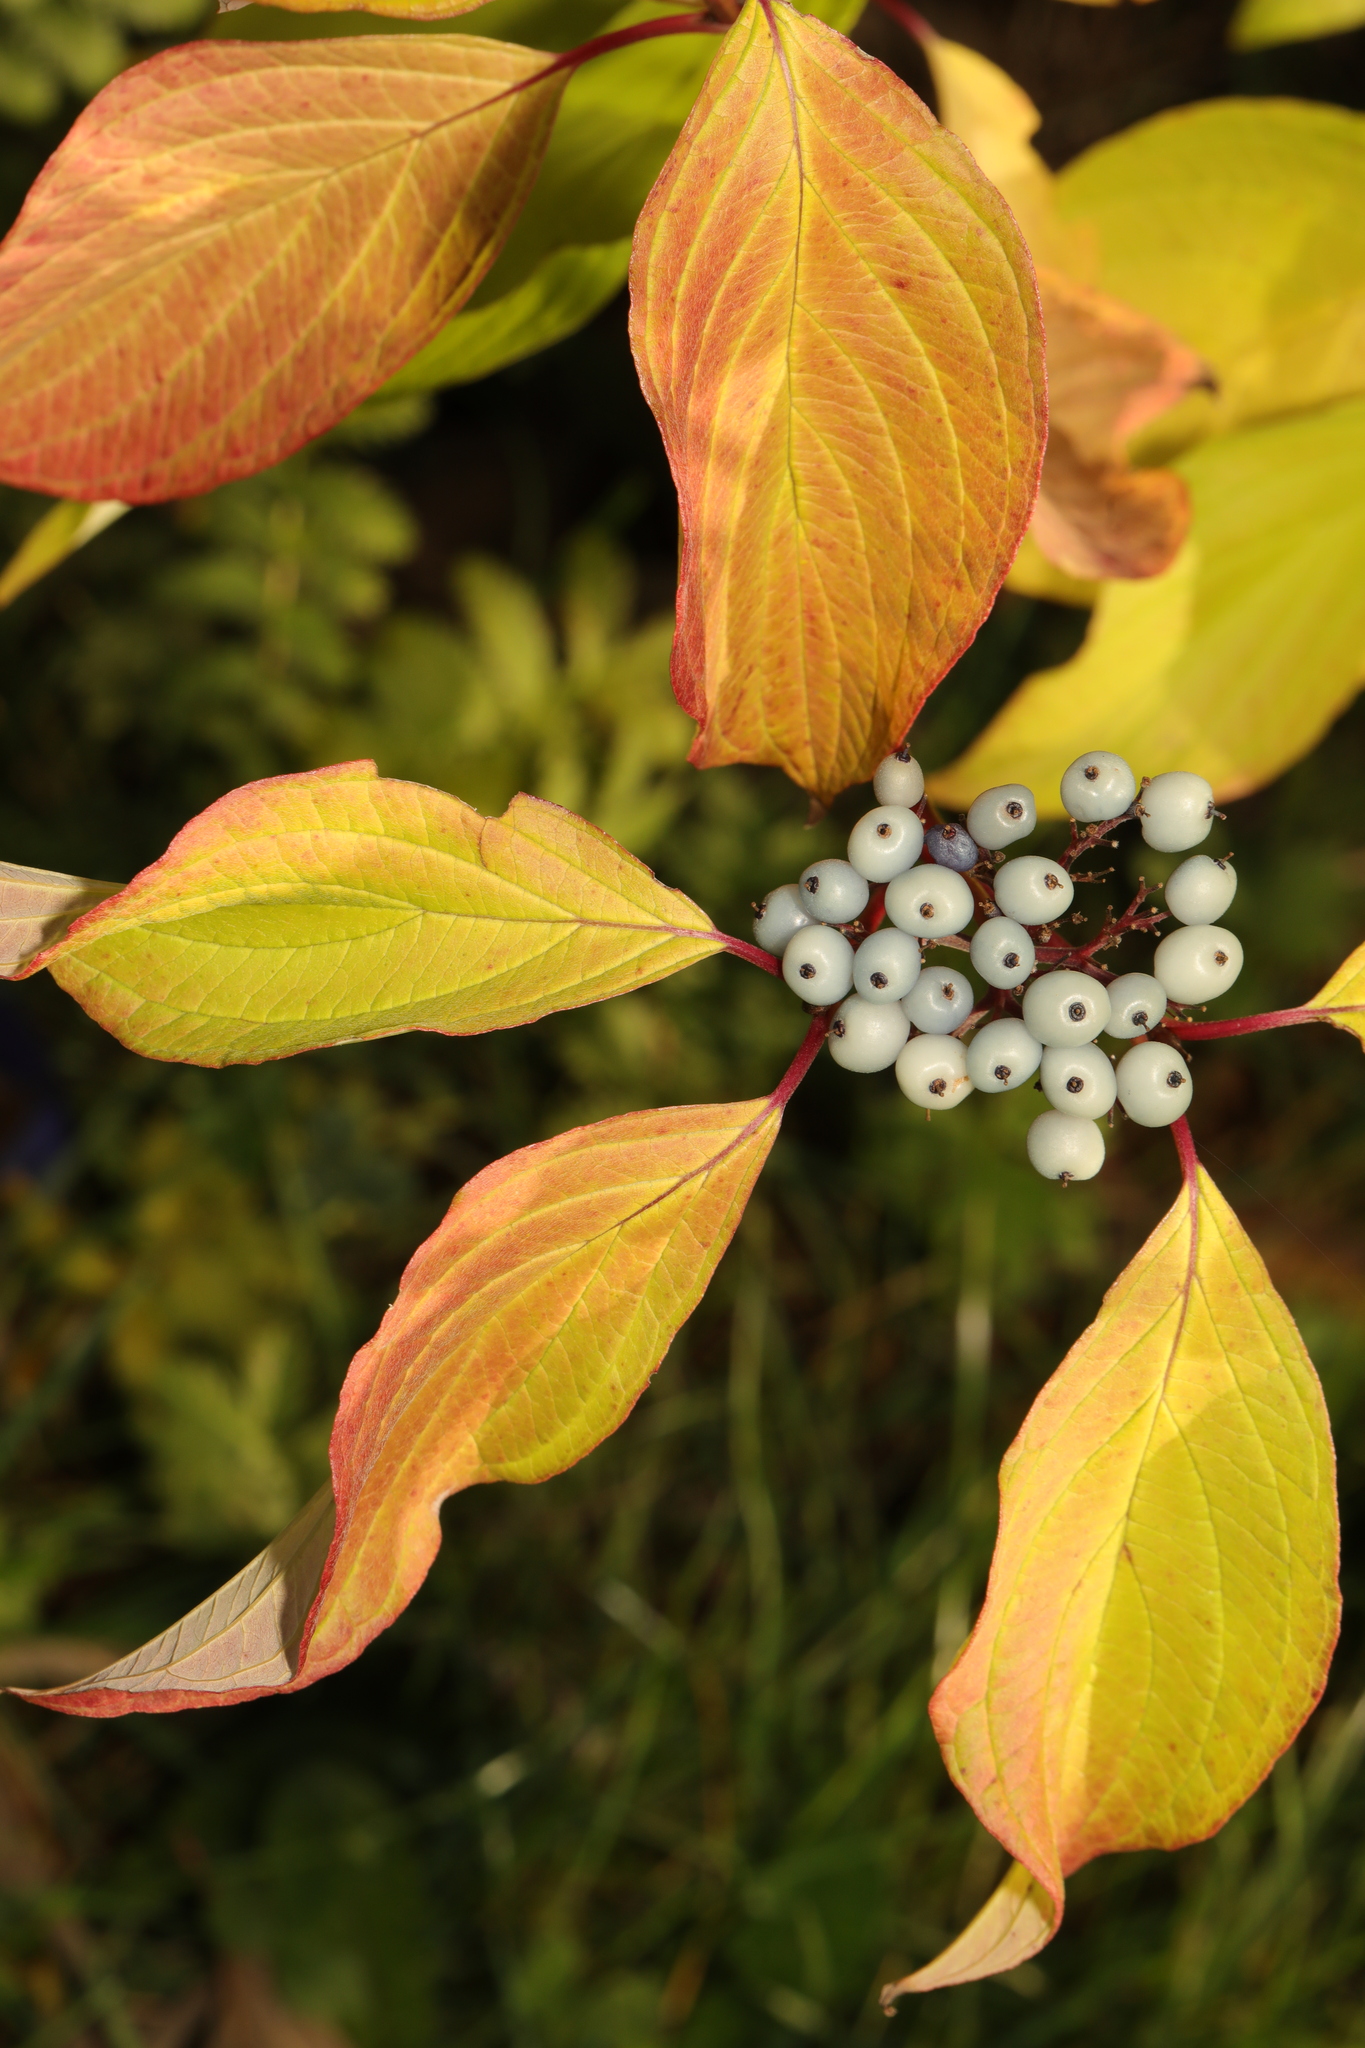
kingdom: Plantae
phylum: Tracheophyta
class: Magnoliopsida
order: Cornales
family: Cornaceae
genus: Cornus
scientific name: Cornus alba
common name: White dogwood
